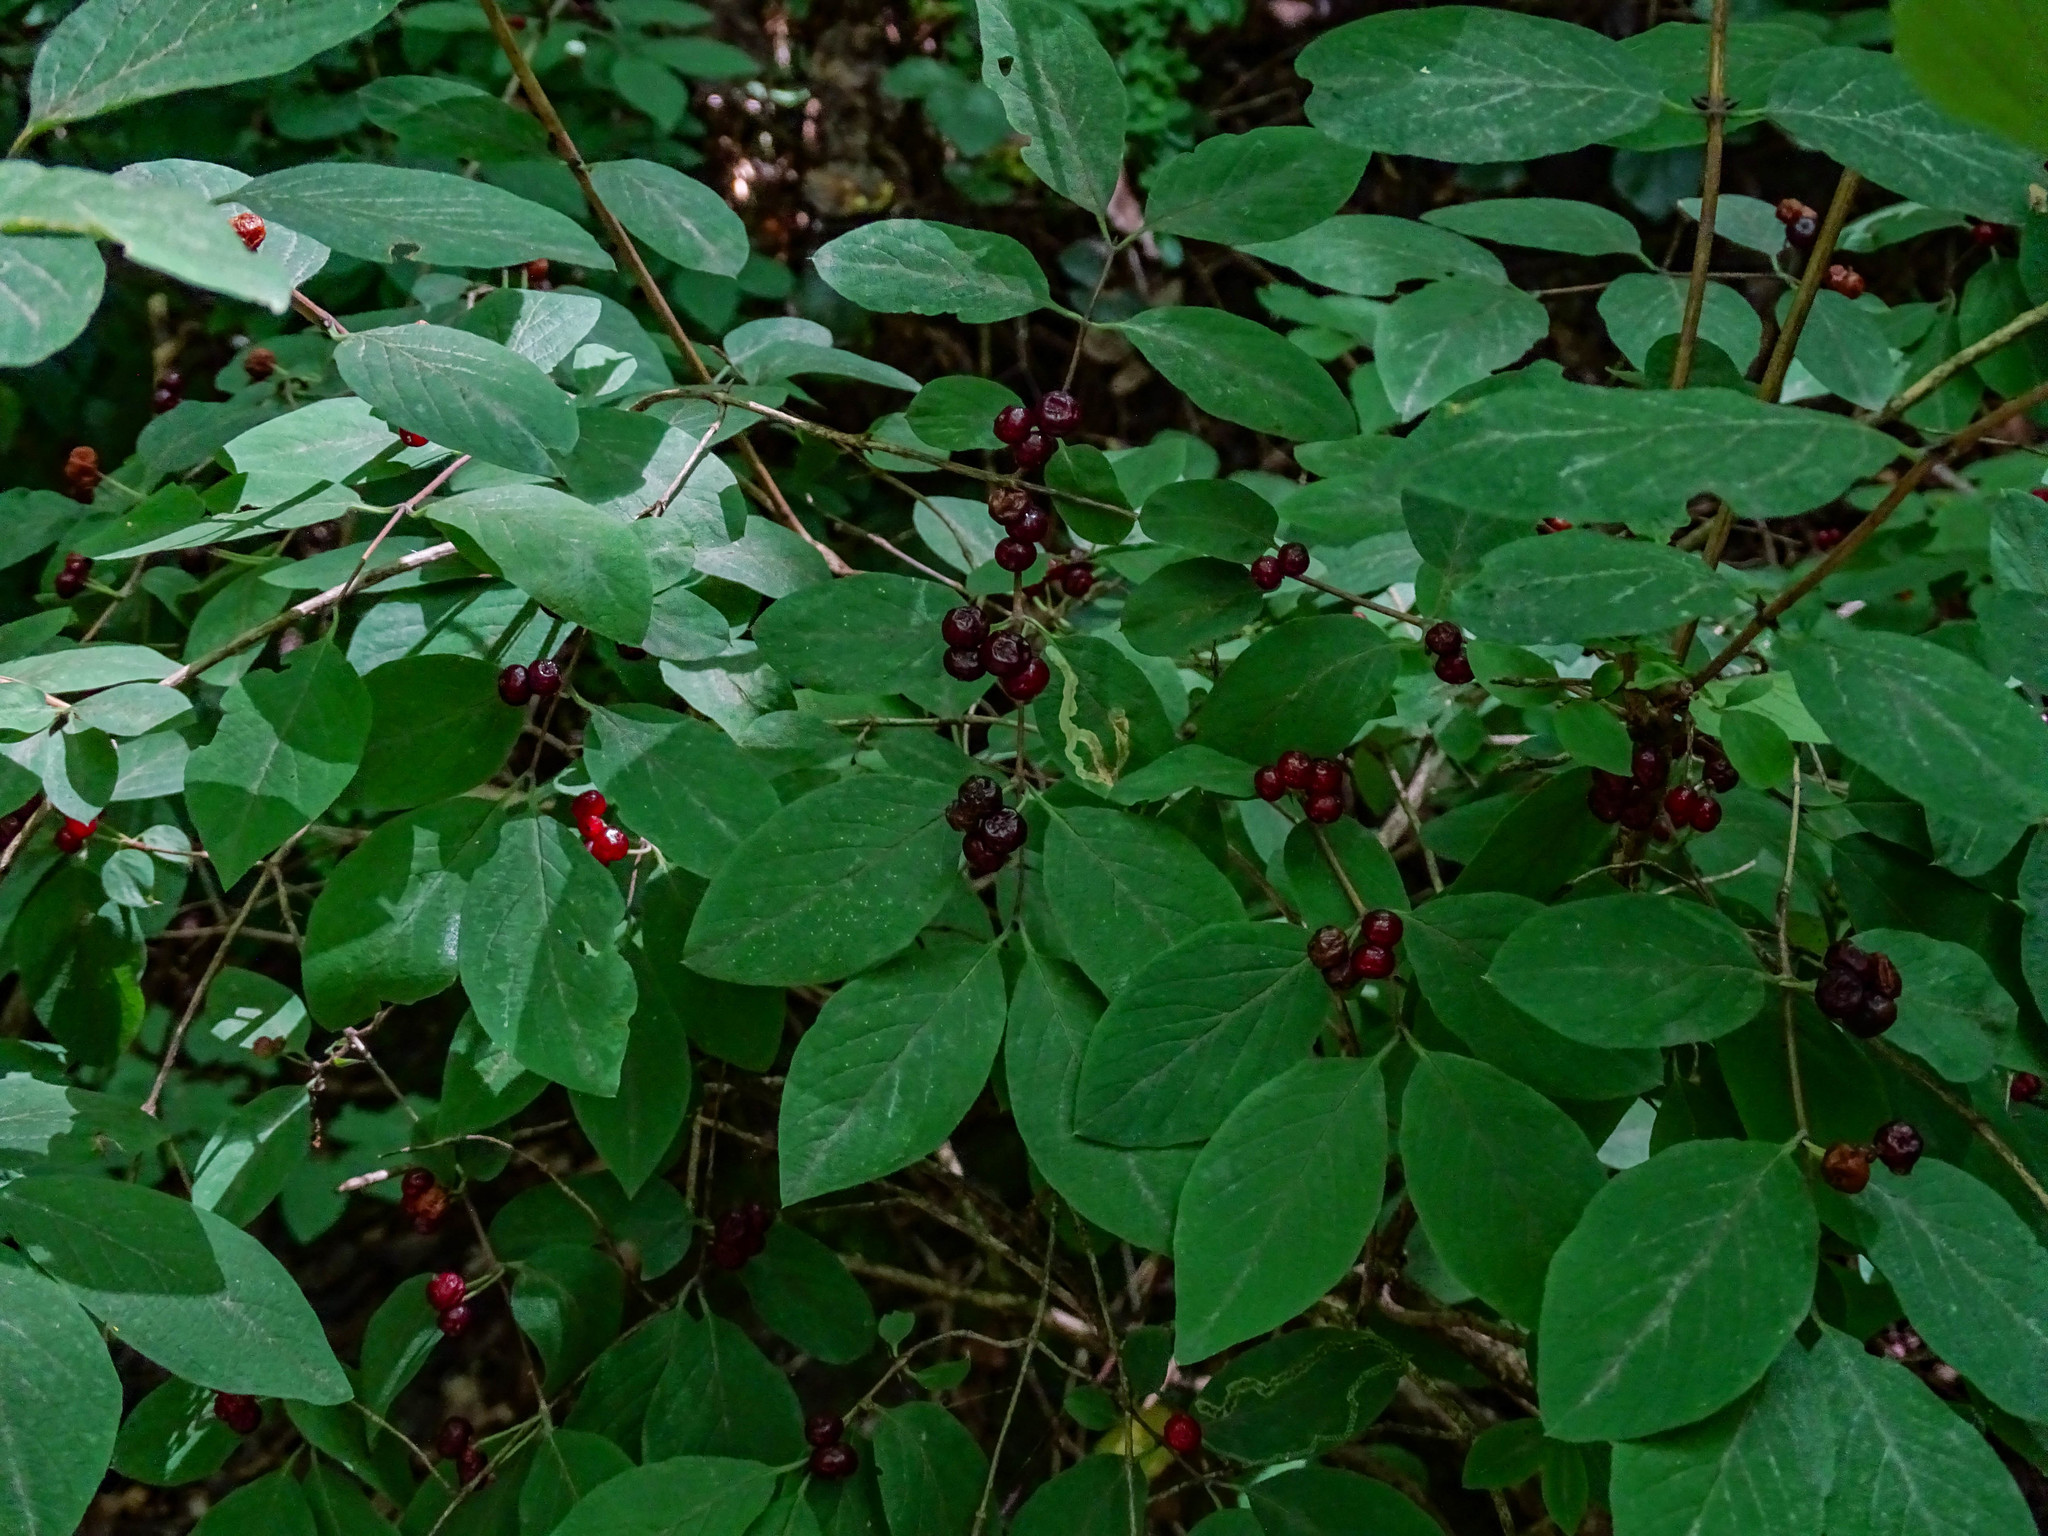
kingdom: Plantae
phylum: Tracheophyta
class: Magnoliopsida
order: Dipsacales
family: Caprifoliaceae
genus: Lonicera
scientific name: Lonicera xylosteum
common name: Fly honeysuckle
